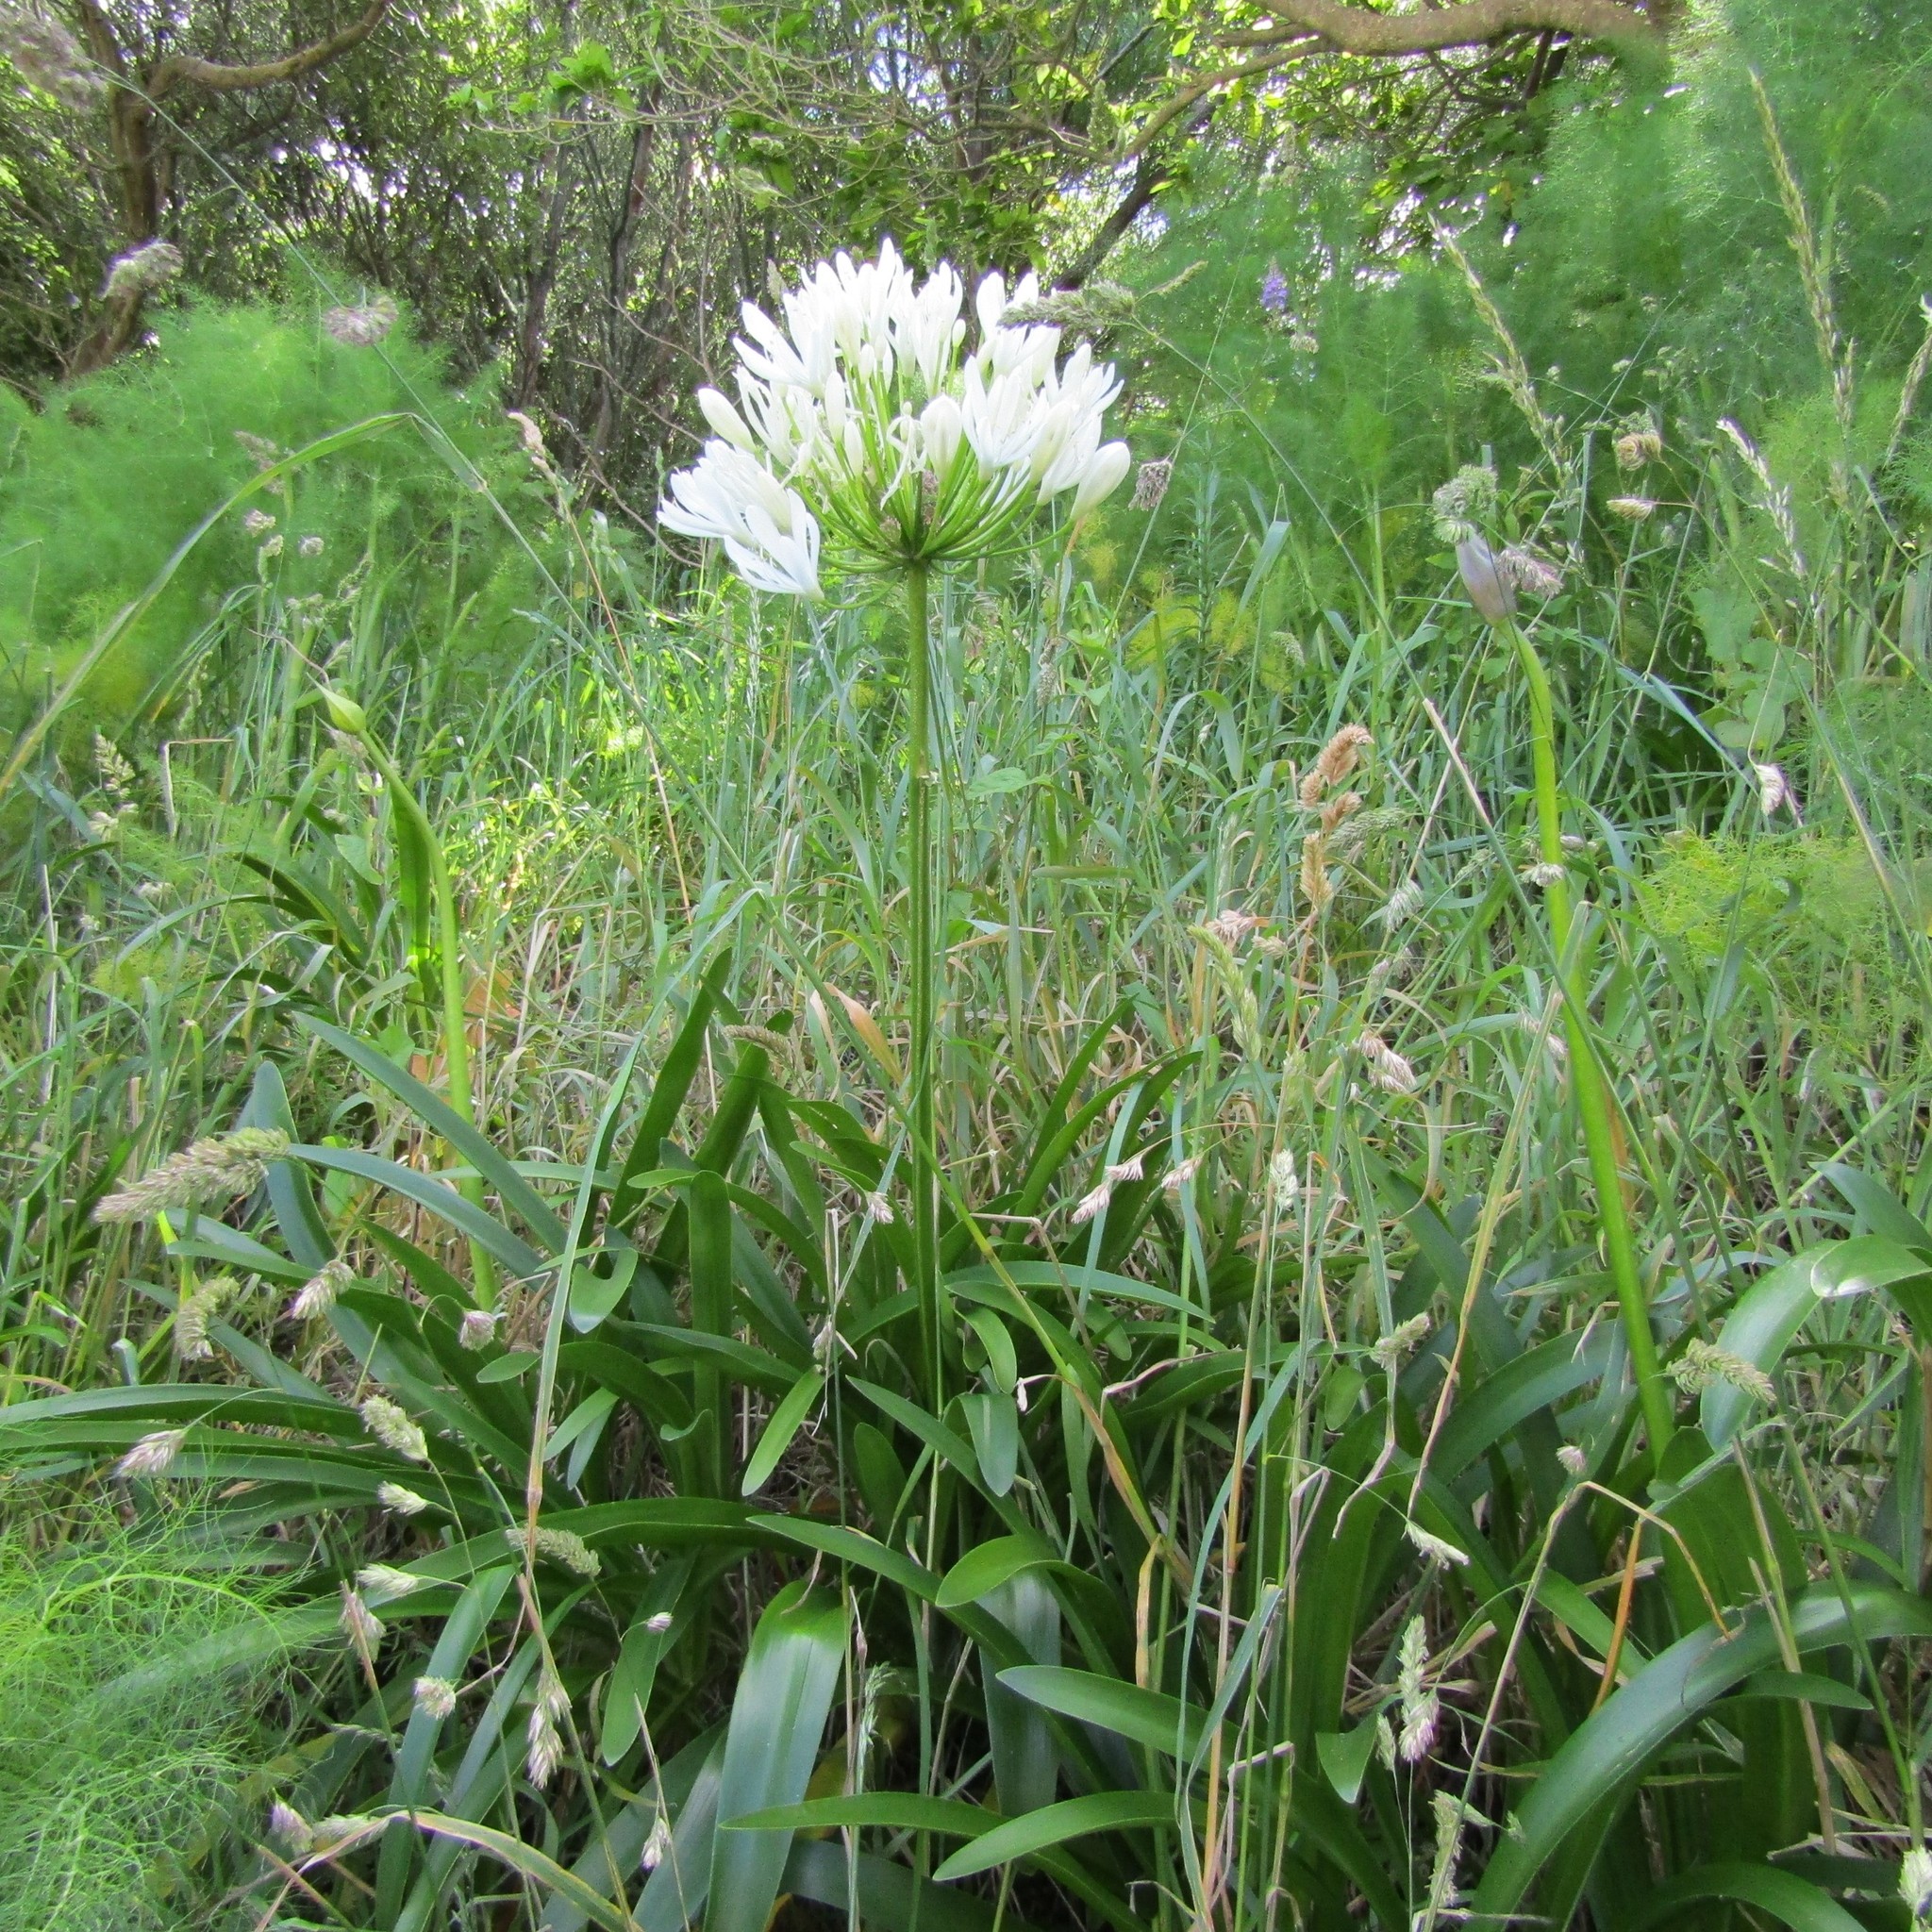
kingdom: Plantae
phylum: Tracheophyta
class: Liliopsida
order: Asparagales
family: Amaryllidaceae
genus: Agapanthus
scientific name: Agapanthus praecox
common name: African-lily
